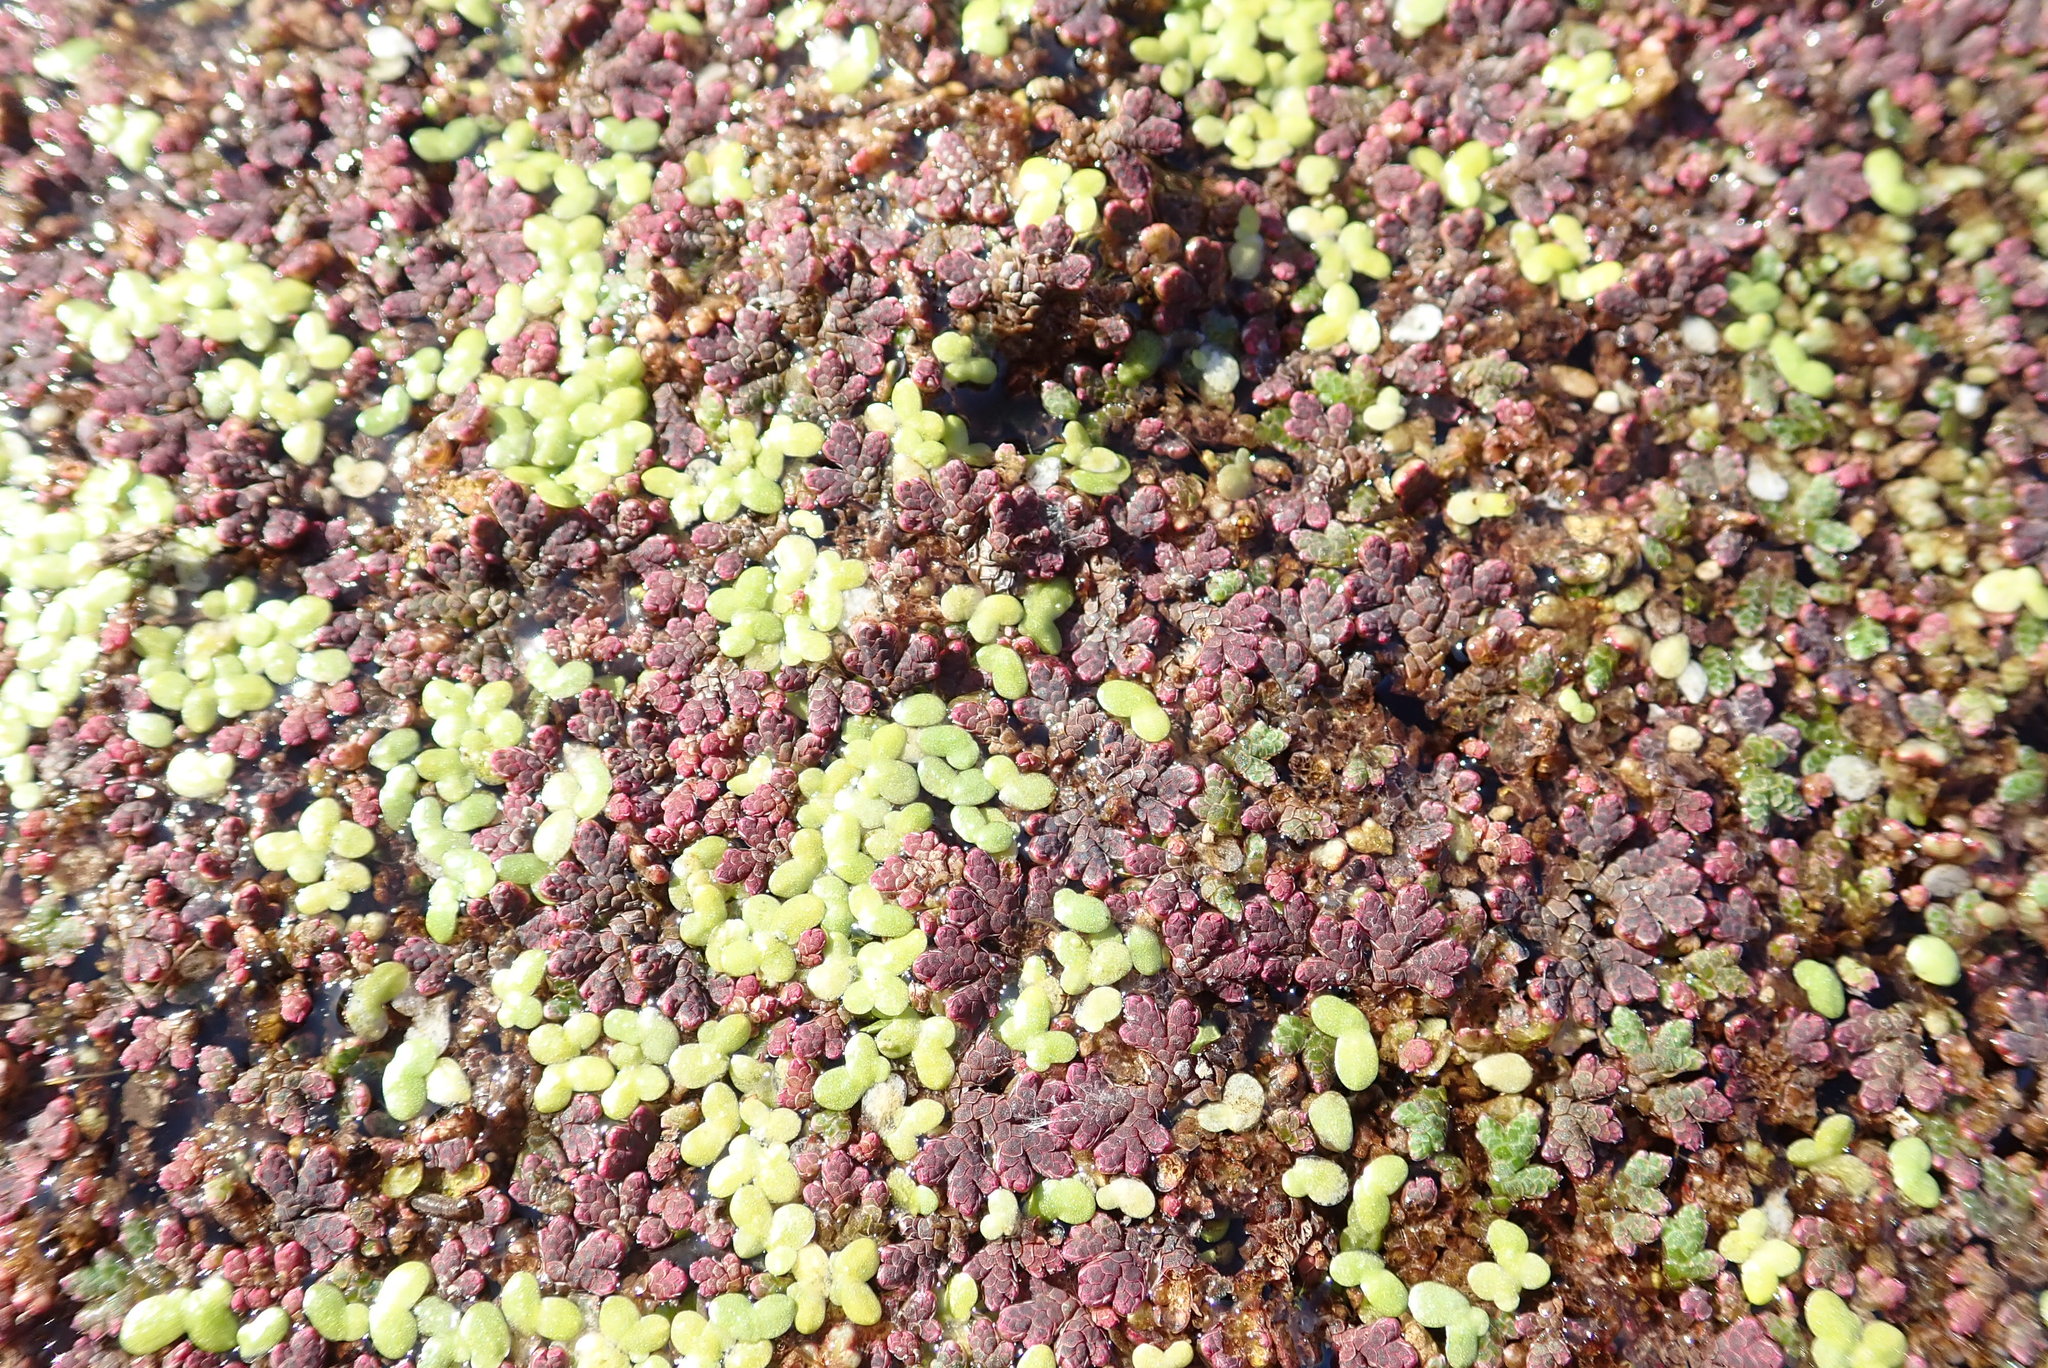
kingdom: Plantae
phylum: Tracheophyta
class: Polypodiopsida
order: Salviniales
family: Salviniaceae
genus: Azolla
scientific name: Azolla rubra
